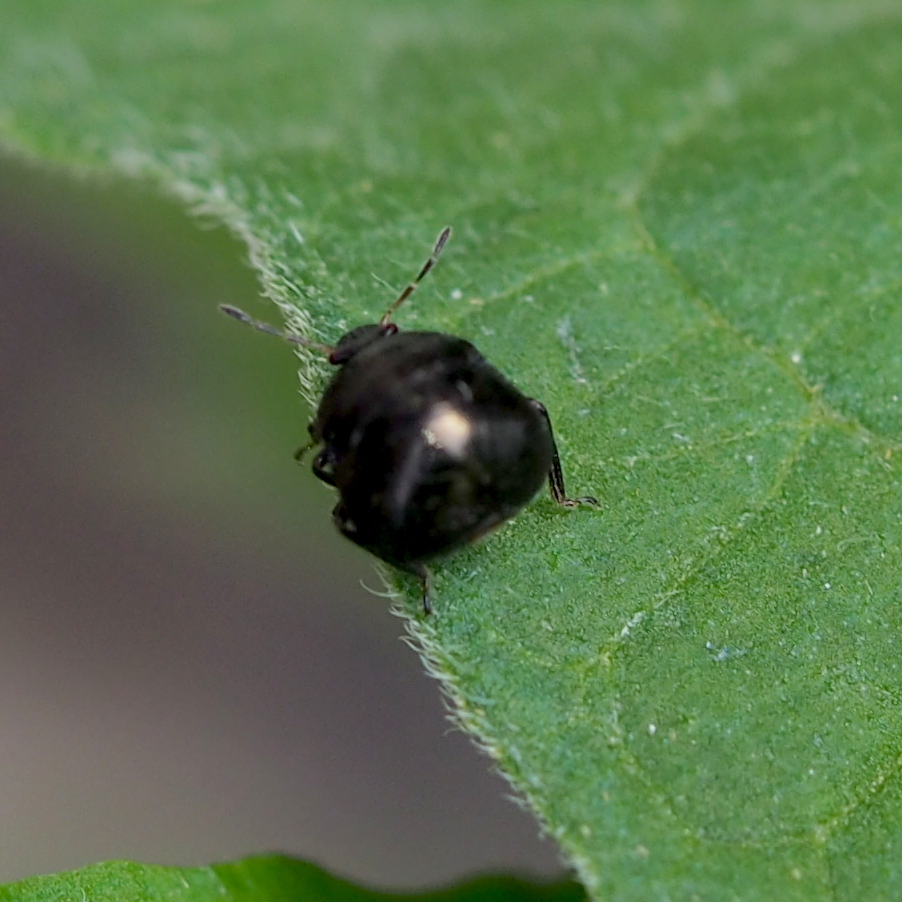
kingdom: Animalia
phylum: Arthropoda
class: Insecta
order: Hemiptera
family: Plataspidae
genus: Coptosoma
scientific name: Coptosoma scutellatum
